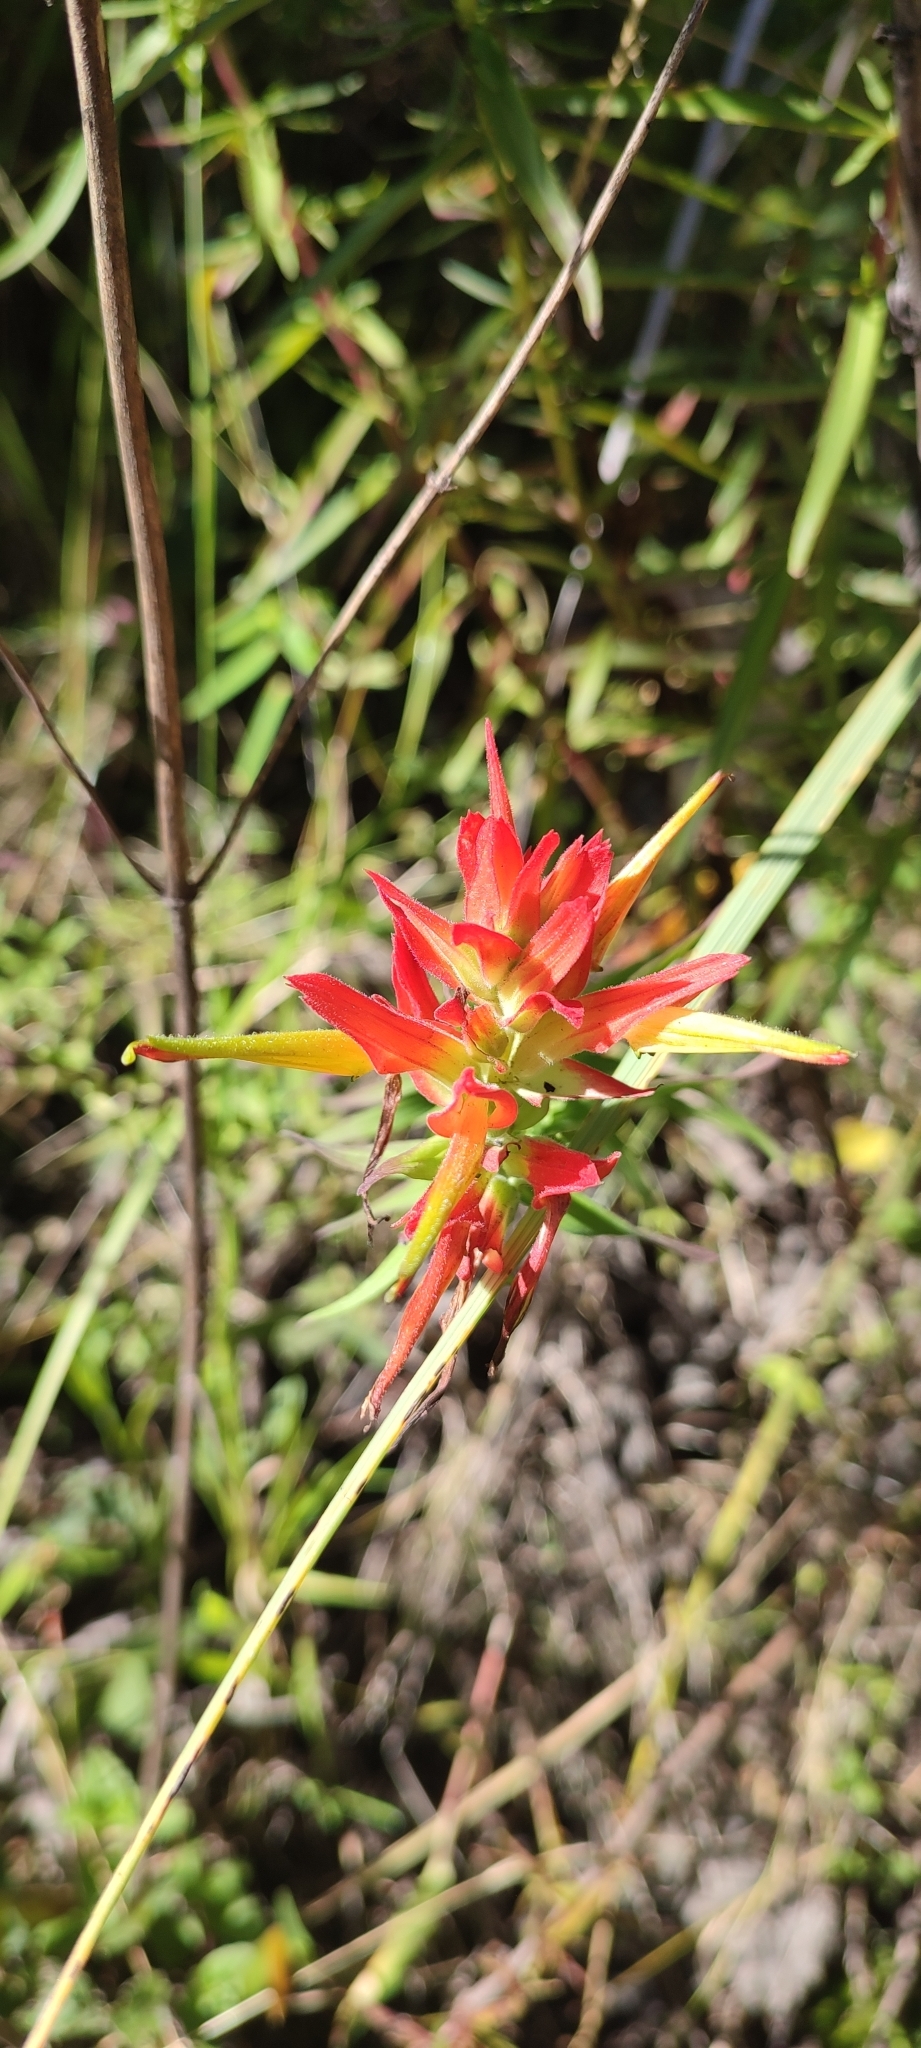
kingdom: Plantae
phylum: Tracheophyta
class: Magnoliopsida
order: Lamiales
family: Orobanchaceae
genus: Castilleja
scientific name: Castilleja tenuiflora
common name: Santa catalina indian paintbrush
